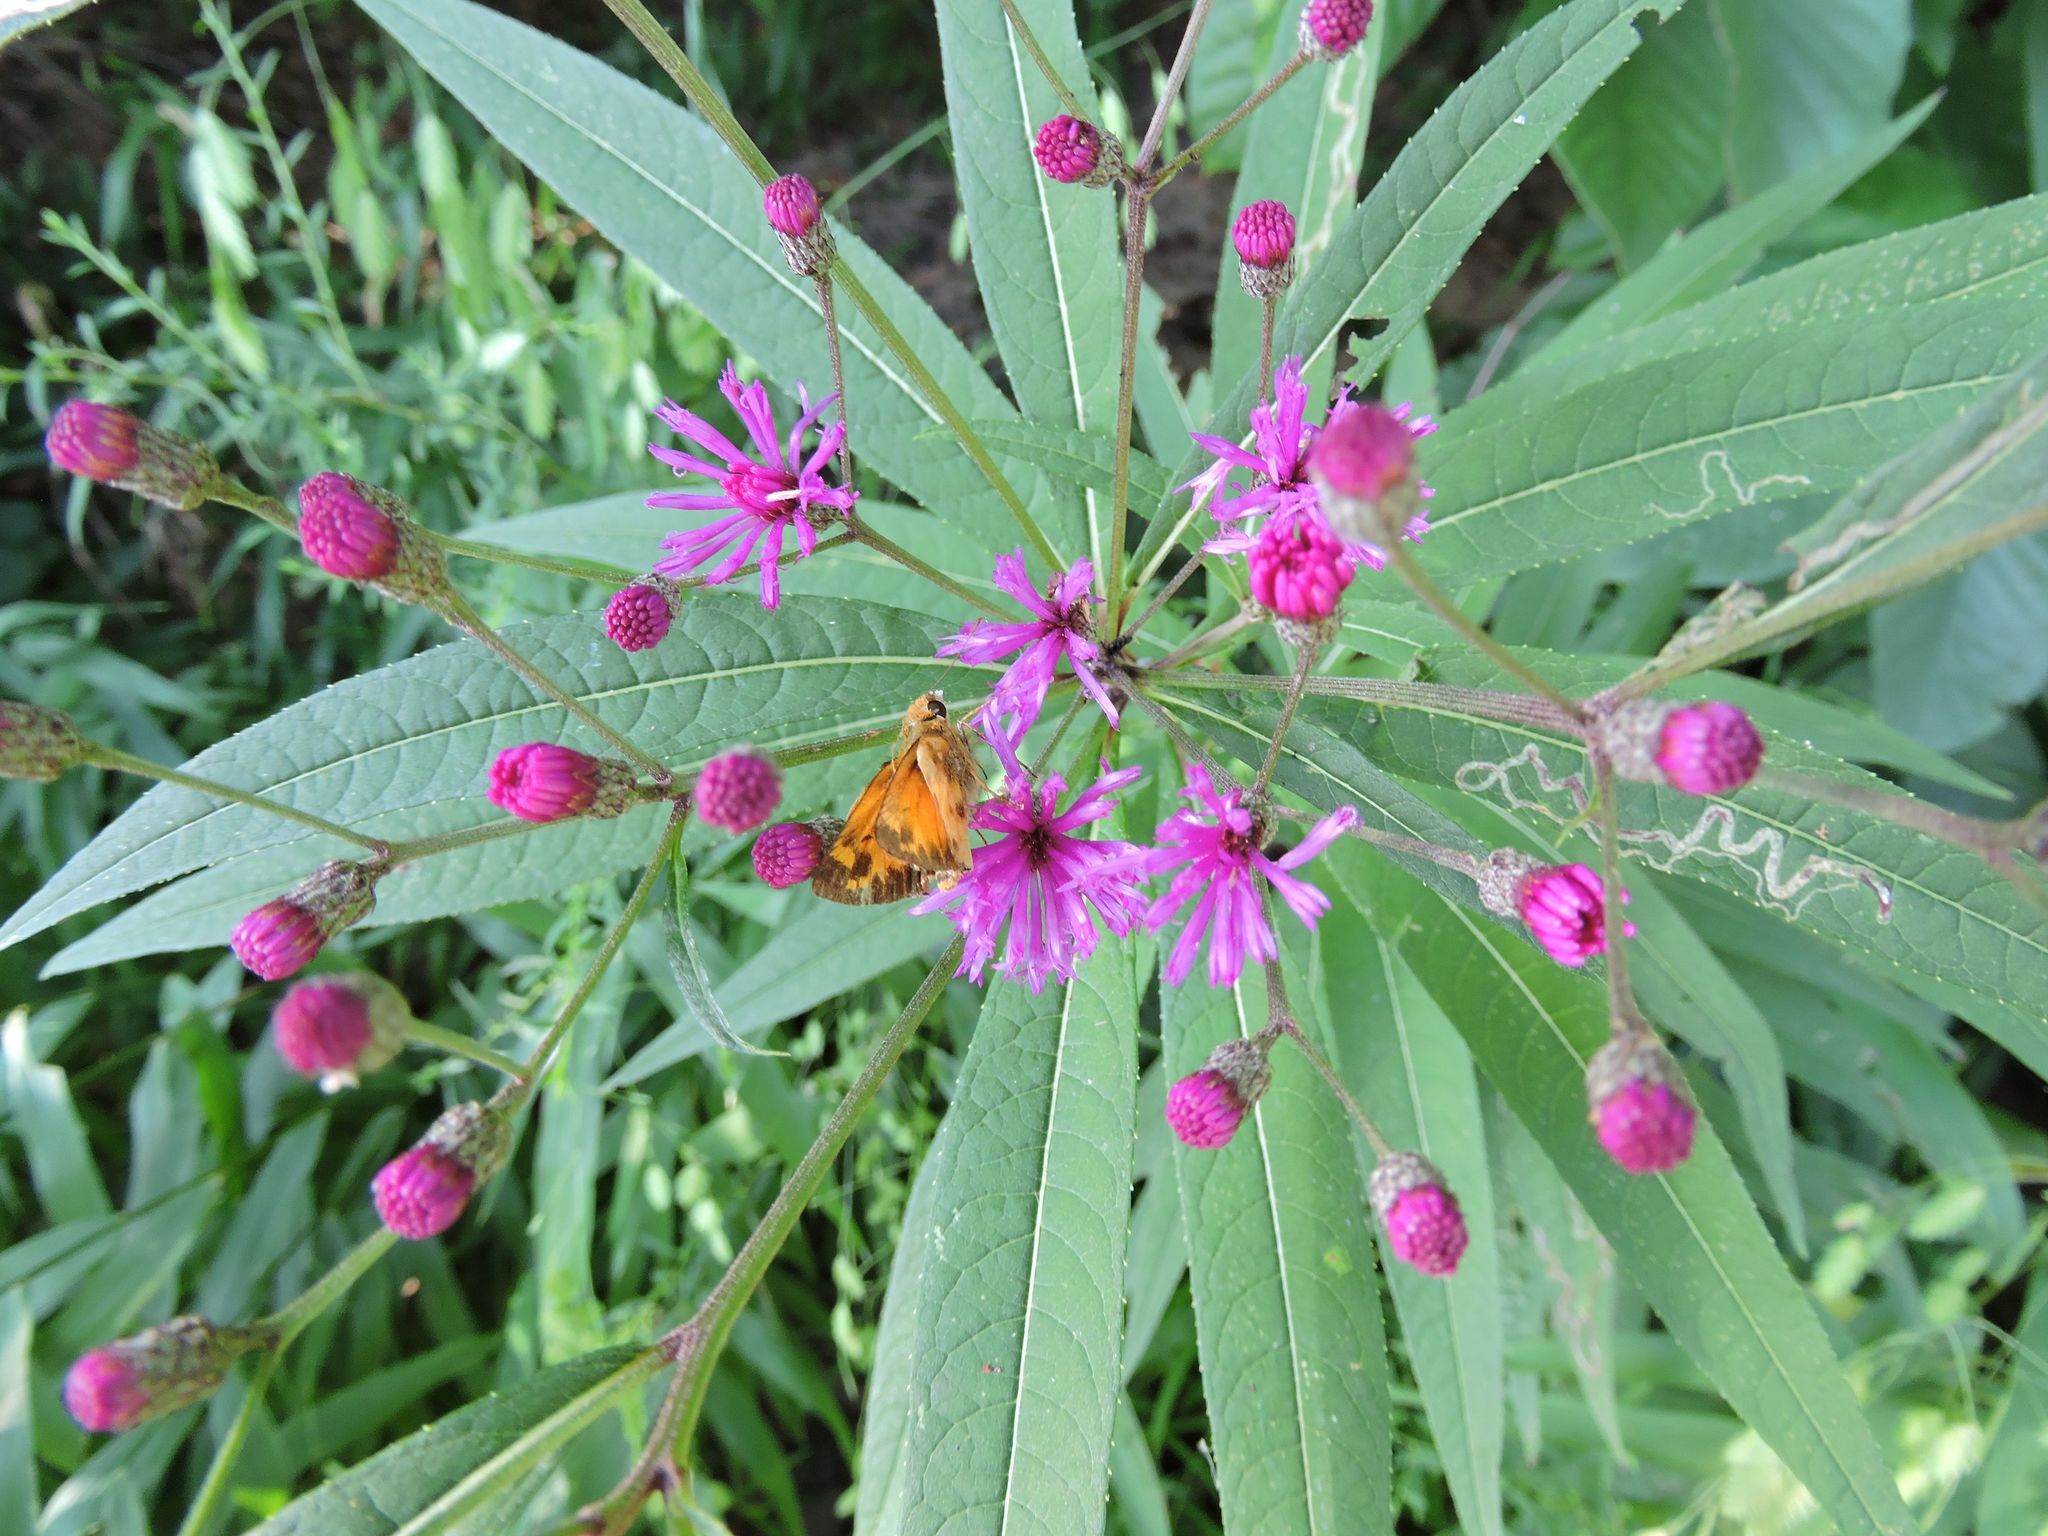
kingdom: Plantae
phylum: Tracheophyta
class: Magnoliopsida
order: Asterales
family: Asteraceae
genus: Vernonia
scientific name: Vernonia noveboracensis
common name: New york ironweed
